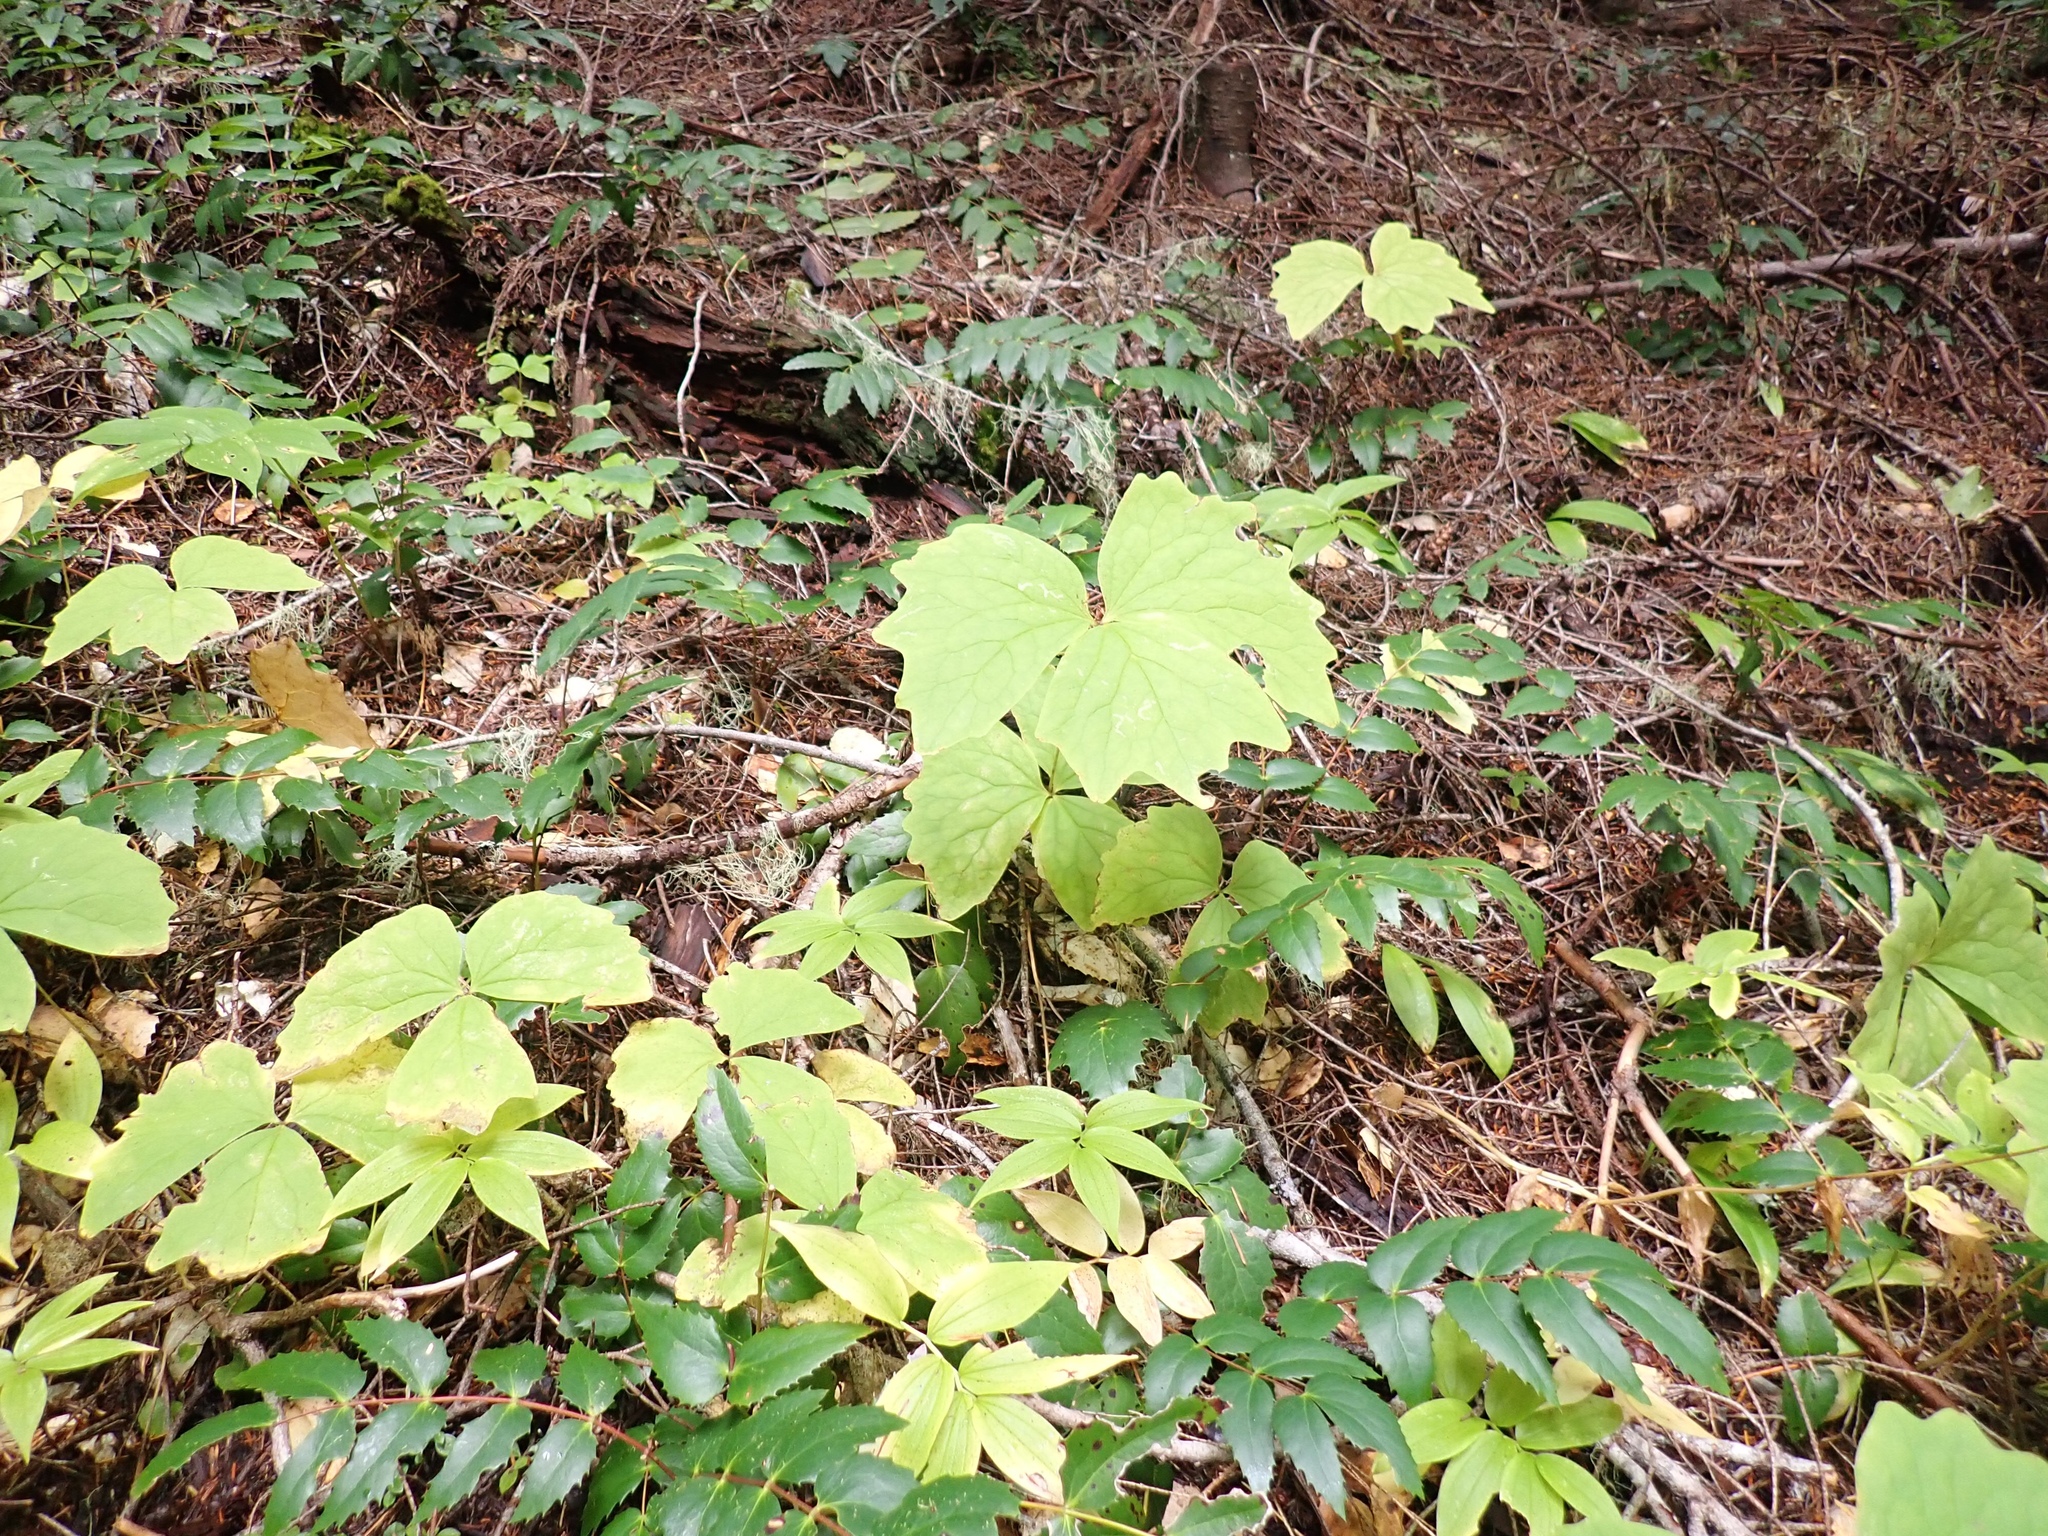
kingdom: Plantae
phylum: Tracheophyta
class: Magnoliopsida
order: Ranunculales
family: Berberidaceae
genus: Achlys
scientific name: Achlys triphylla
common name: Vanilla-leaf
